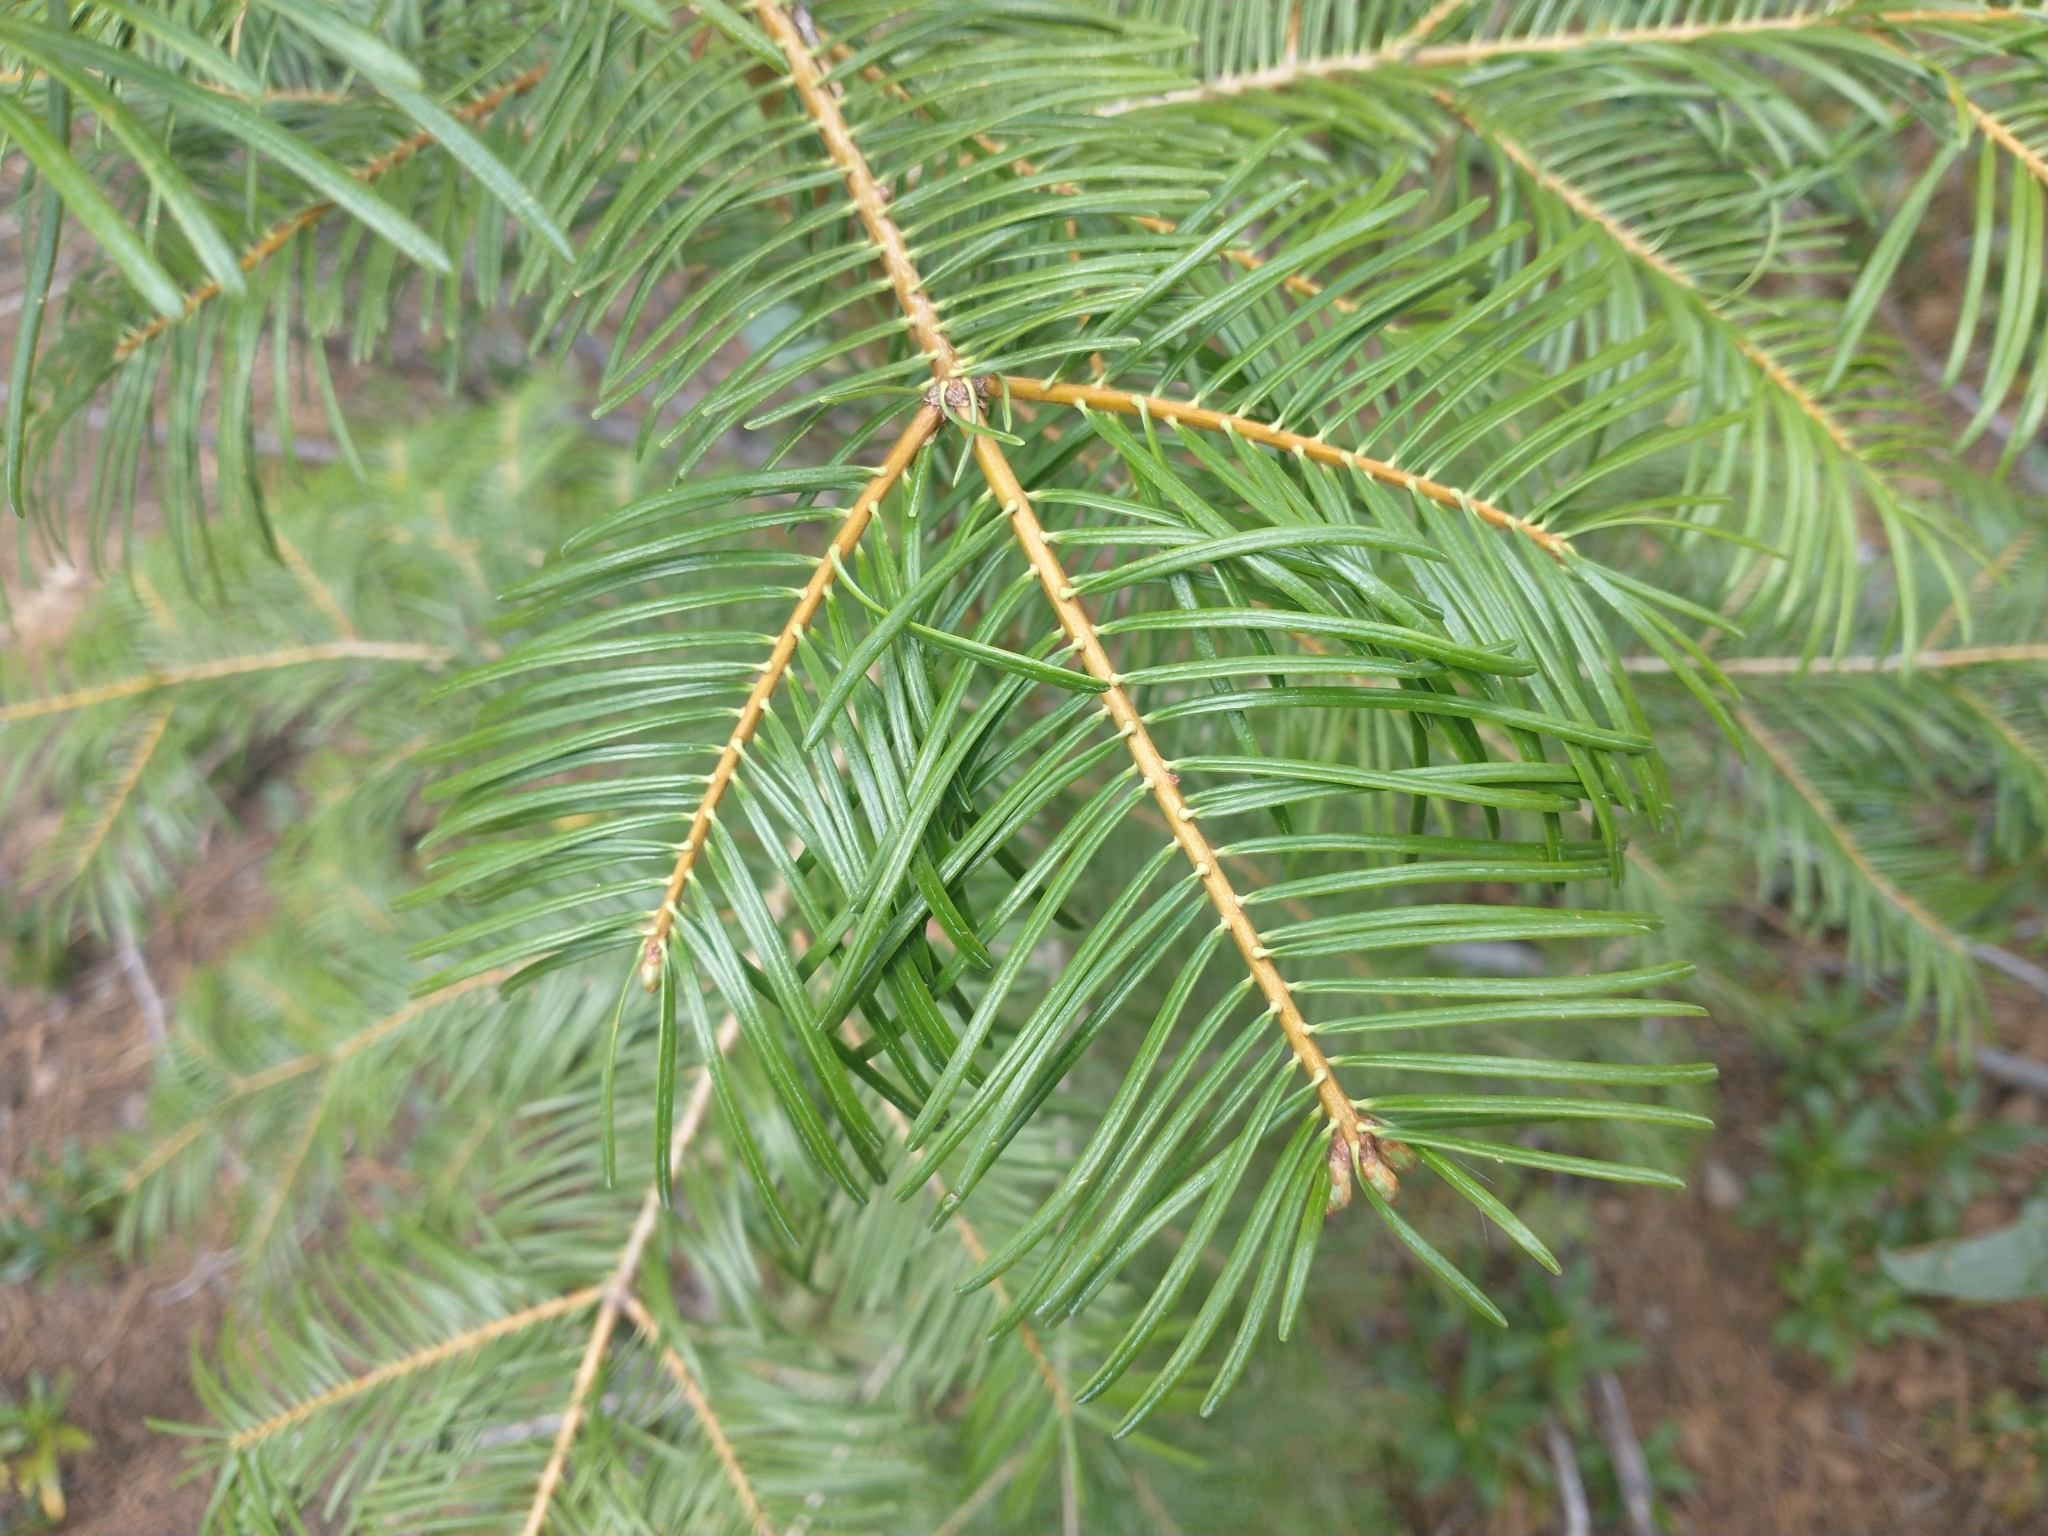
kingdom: Plantae
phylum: Tracheophyta
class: Pinopsida
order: Pinales
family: Pinaceae
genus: Abies
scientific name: Abies concolor
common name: Colorado fir
